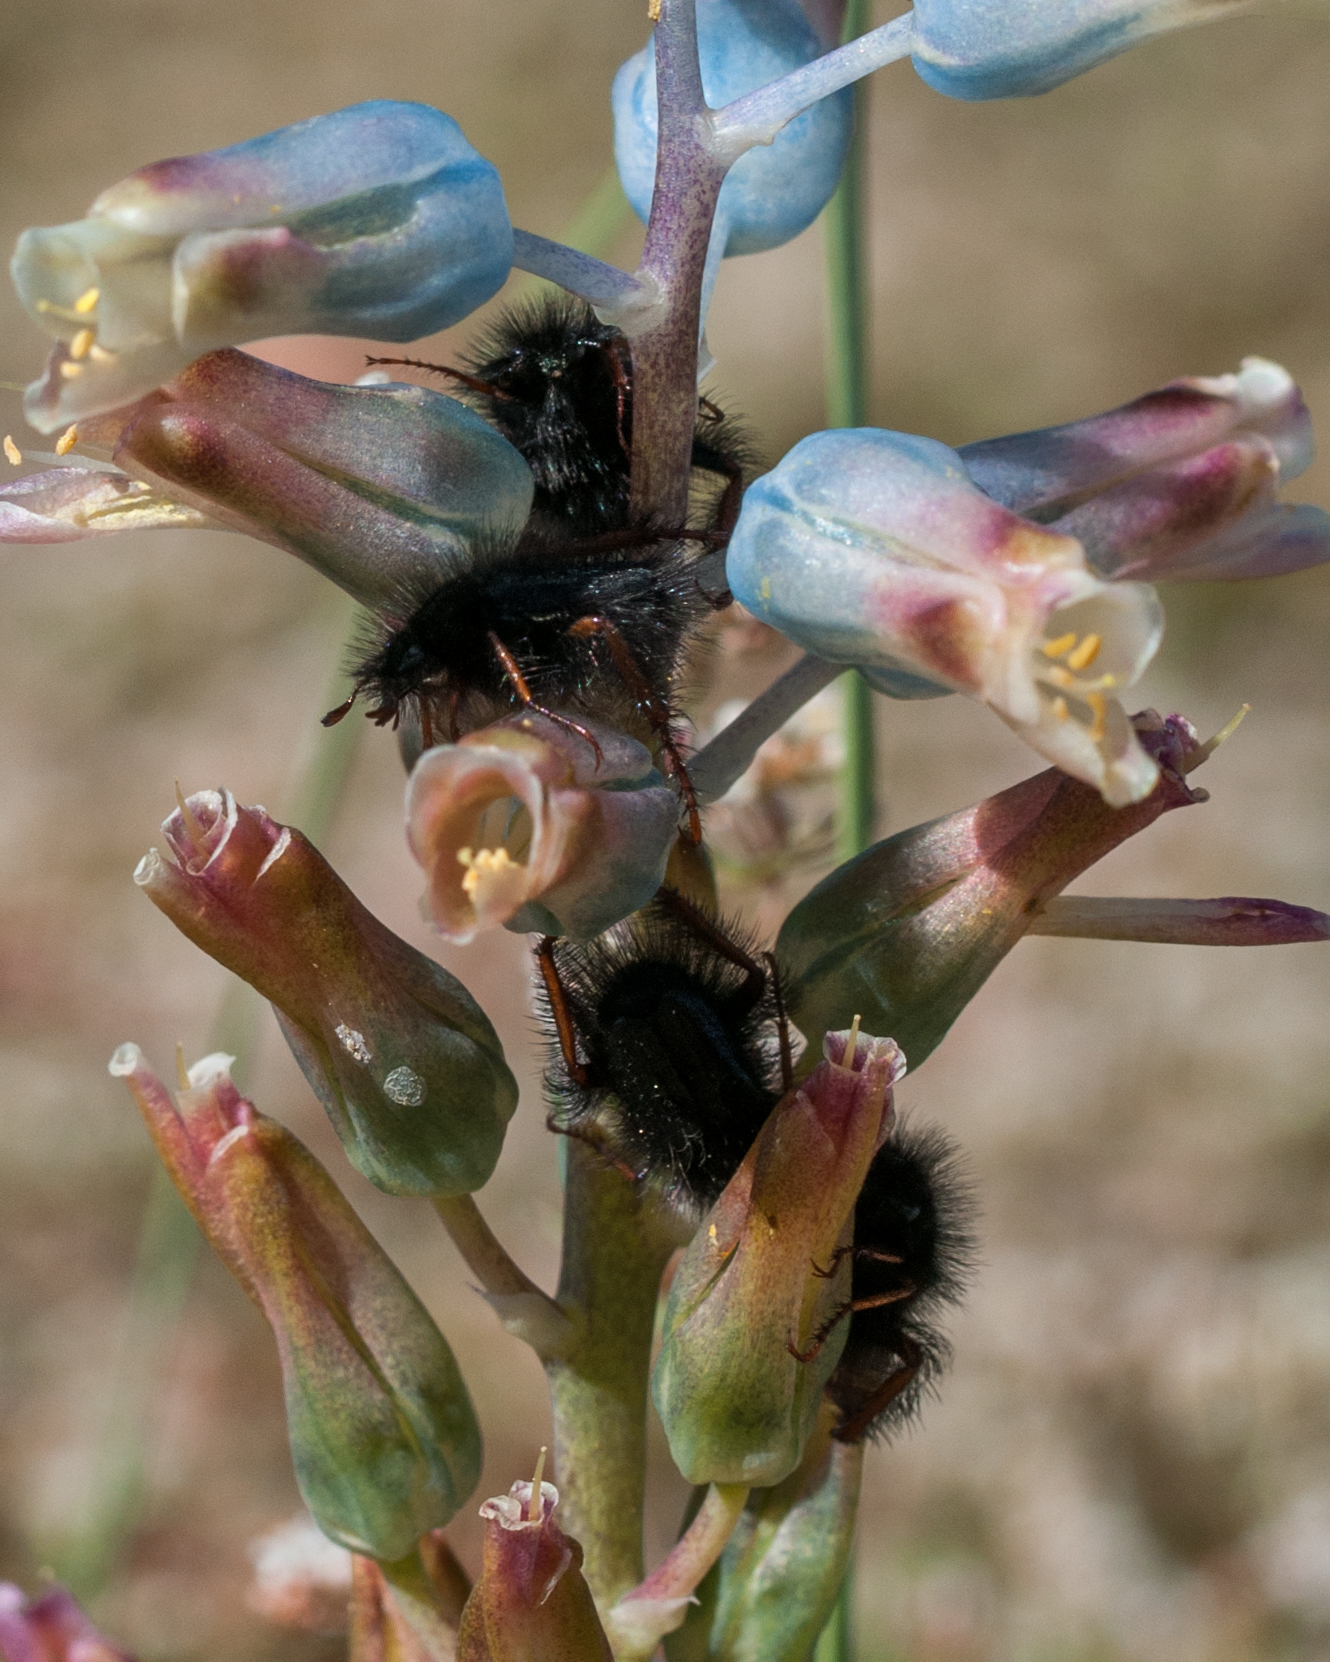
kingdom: Plantae
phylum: Tracheophyta
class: Liliopsida
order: Asparagales
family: Asparagaceae
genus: Lachenalia
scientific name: Lachenalia mediana
